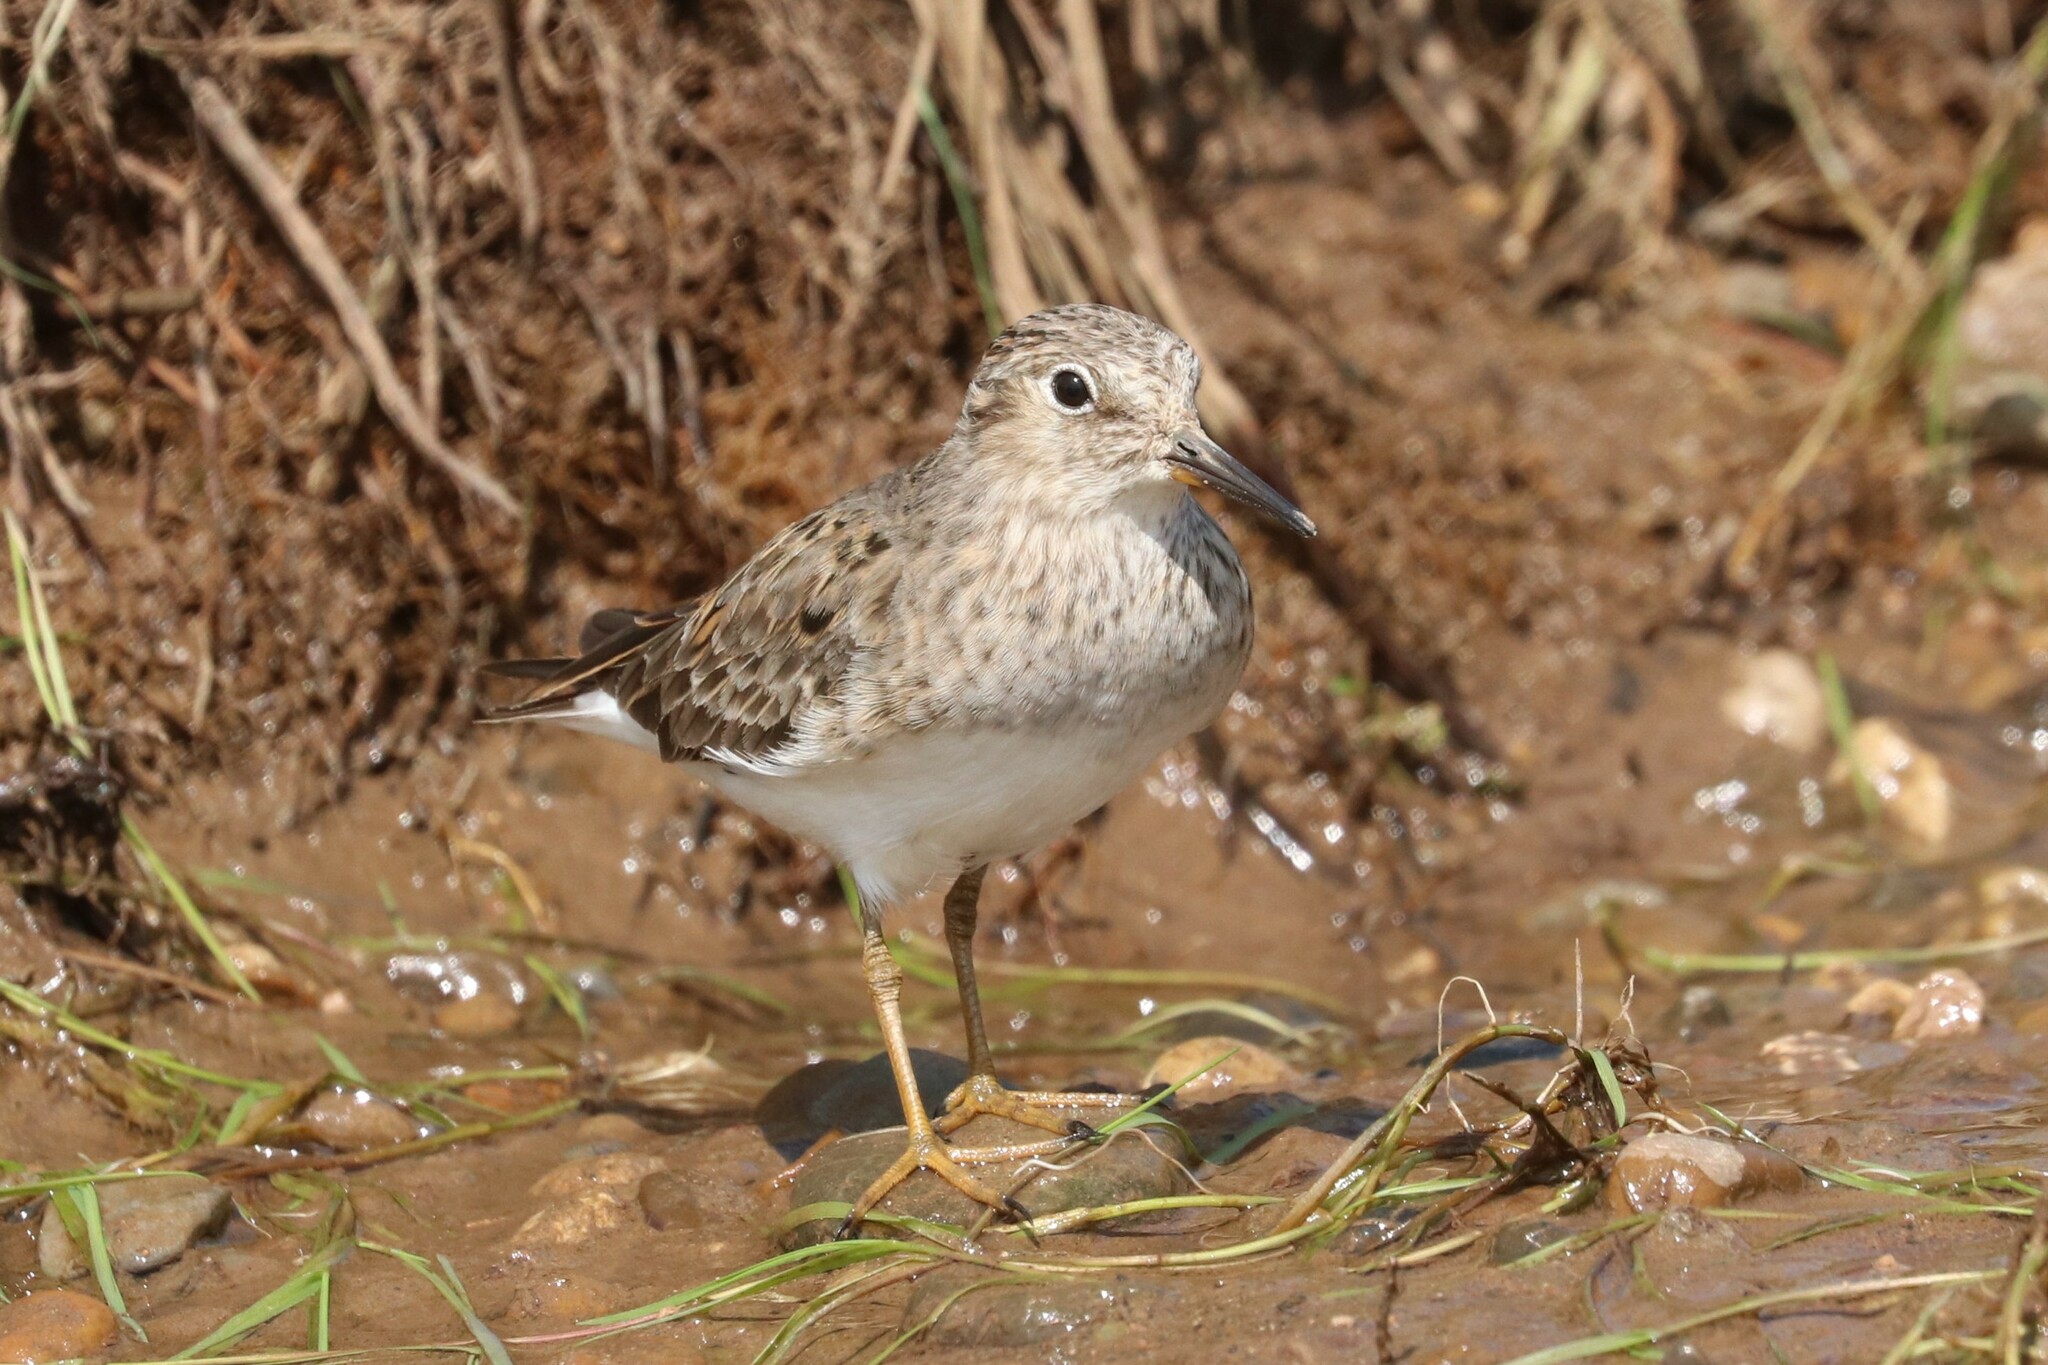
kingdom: Animalia
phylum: Chordata
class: Aves
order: Charadriiformes
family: Scolopacidae
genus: Calidris
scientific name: Calidris temminckii
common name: Temminck's stint
